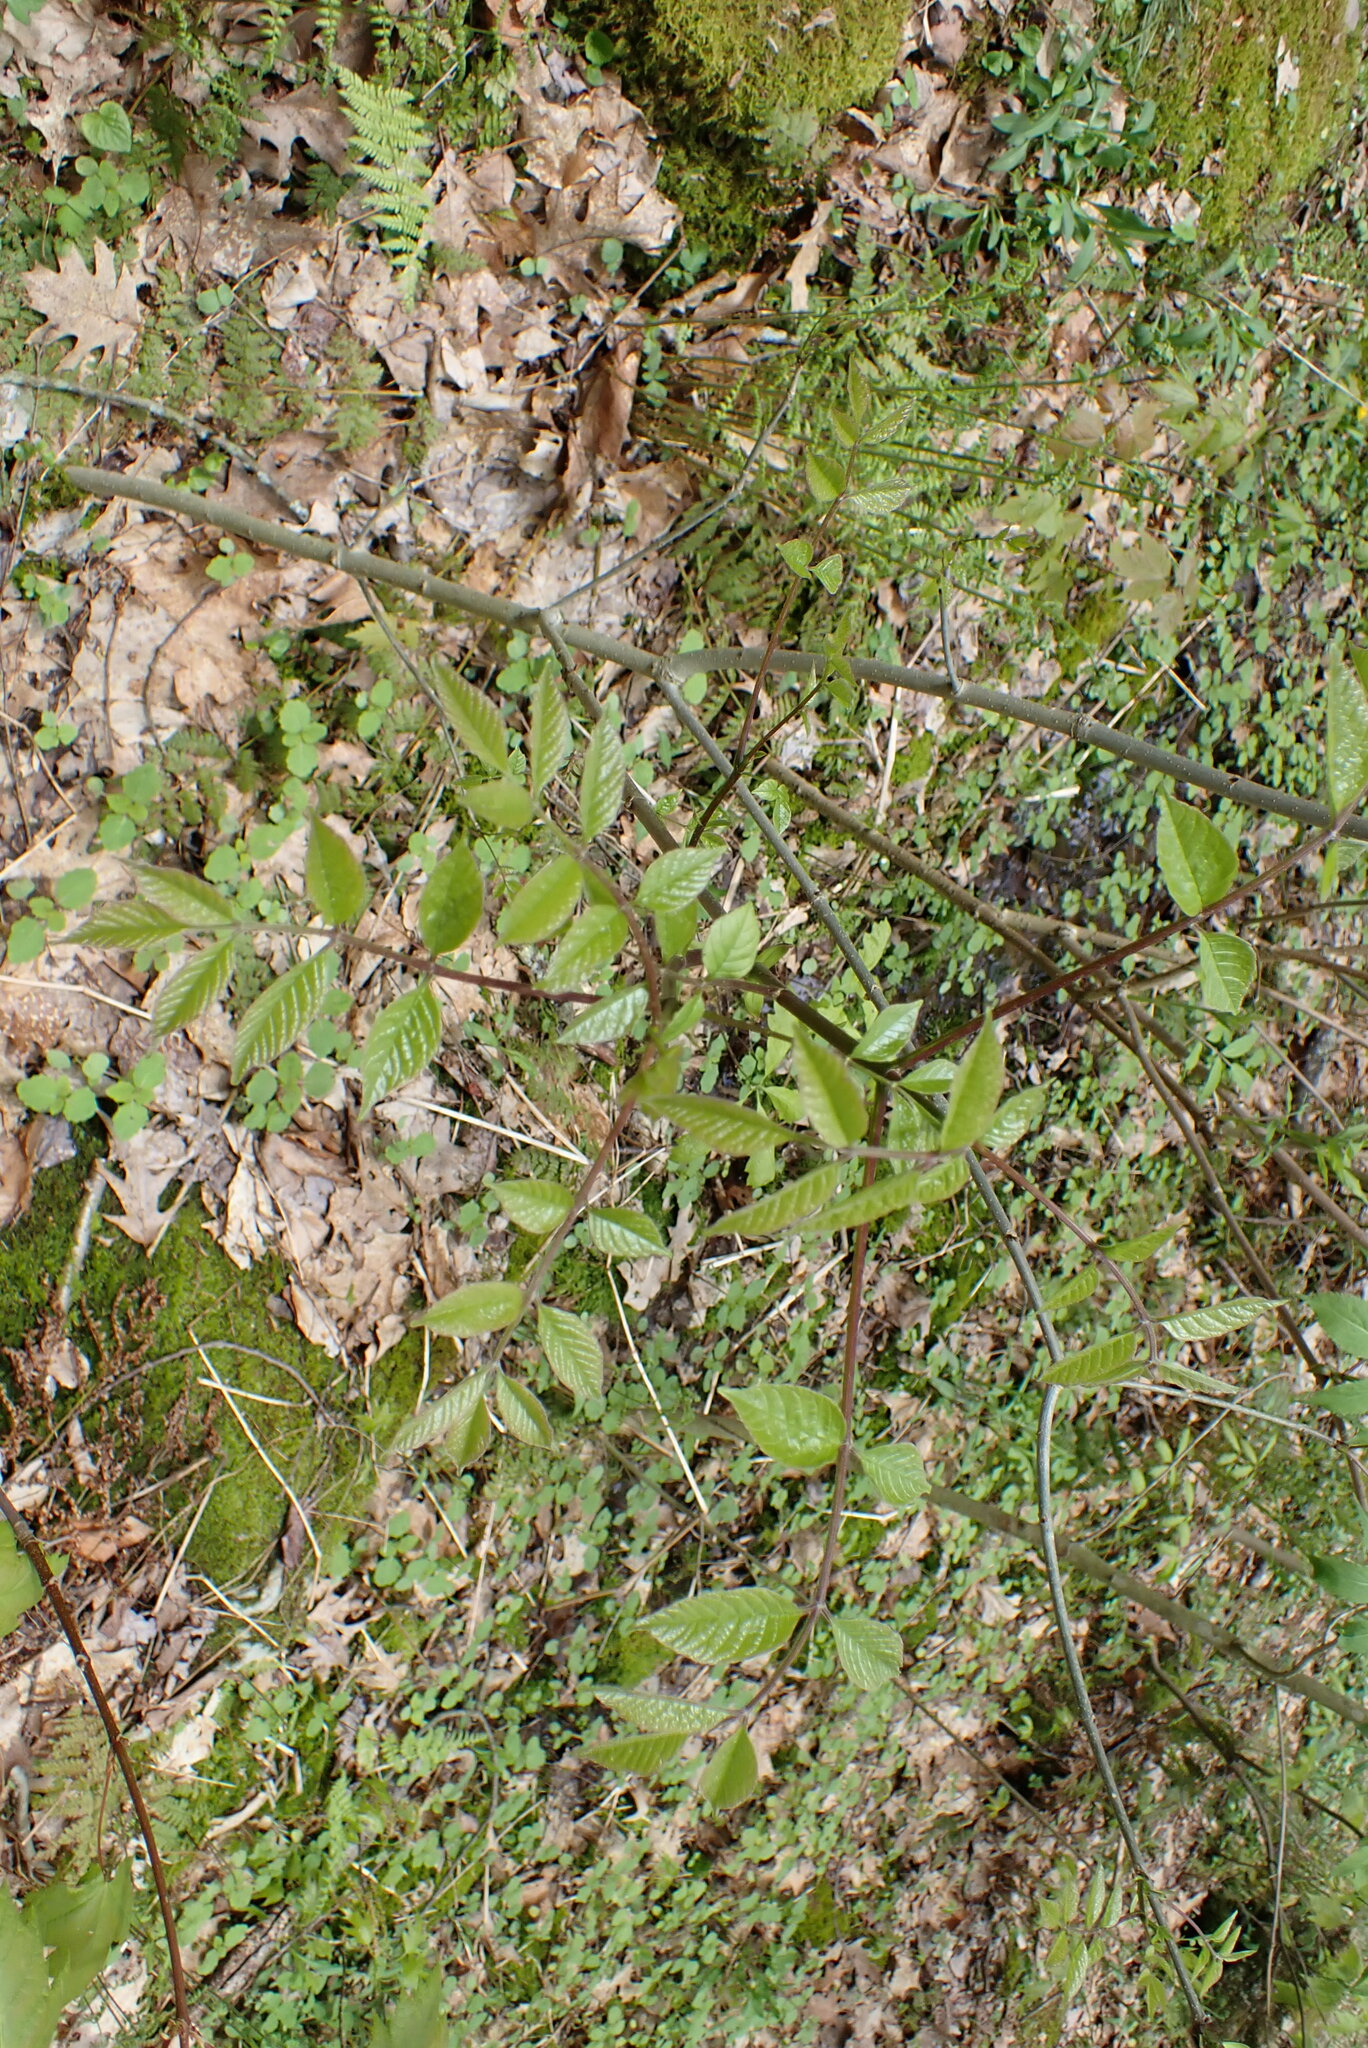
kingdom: Plantae
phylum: Tracheophyta
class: Magnoliopsida
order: Dipsacales
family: Viburnaceae
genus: Sambucus
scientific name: Sambucus racemosa
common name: Red-berried elder
